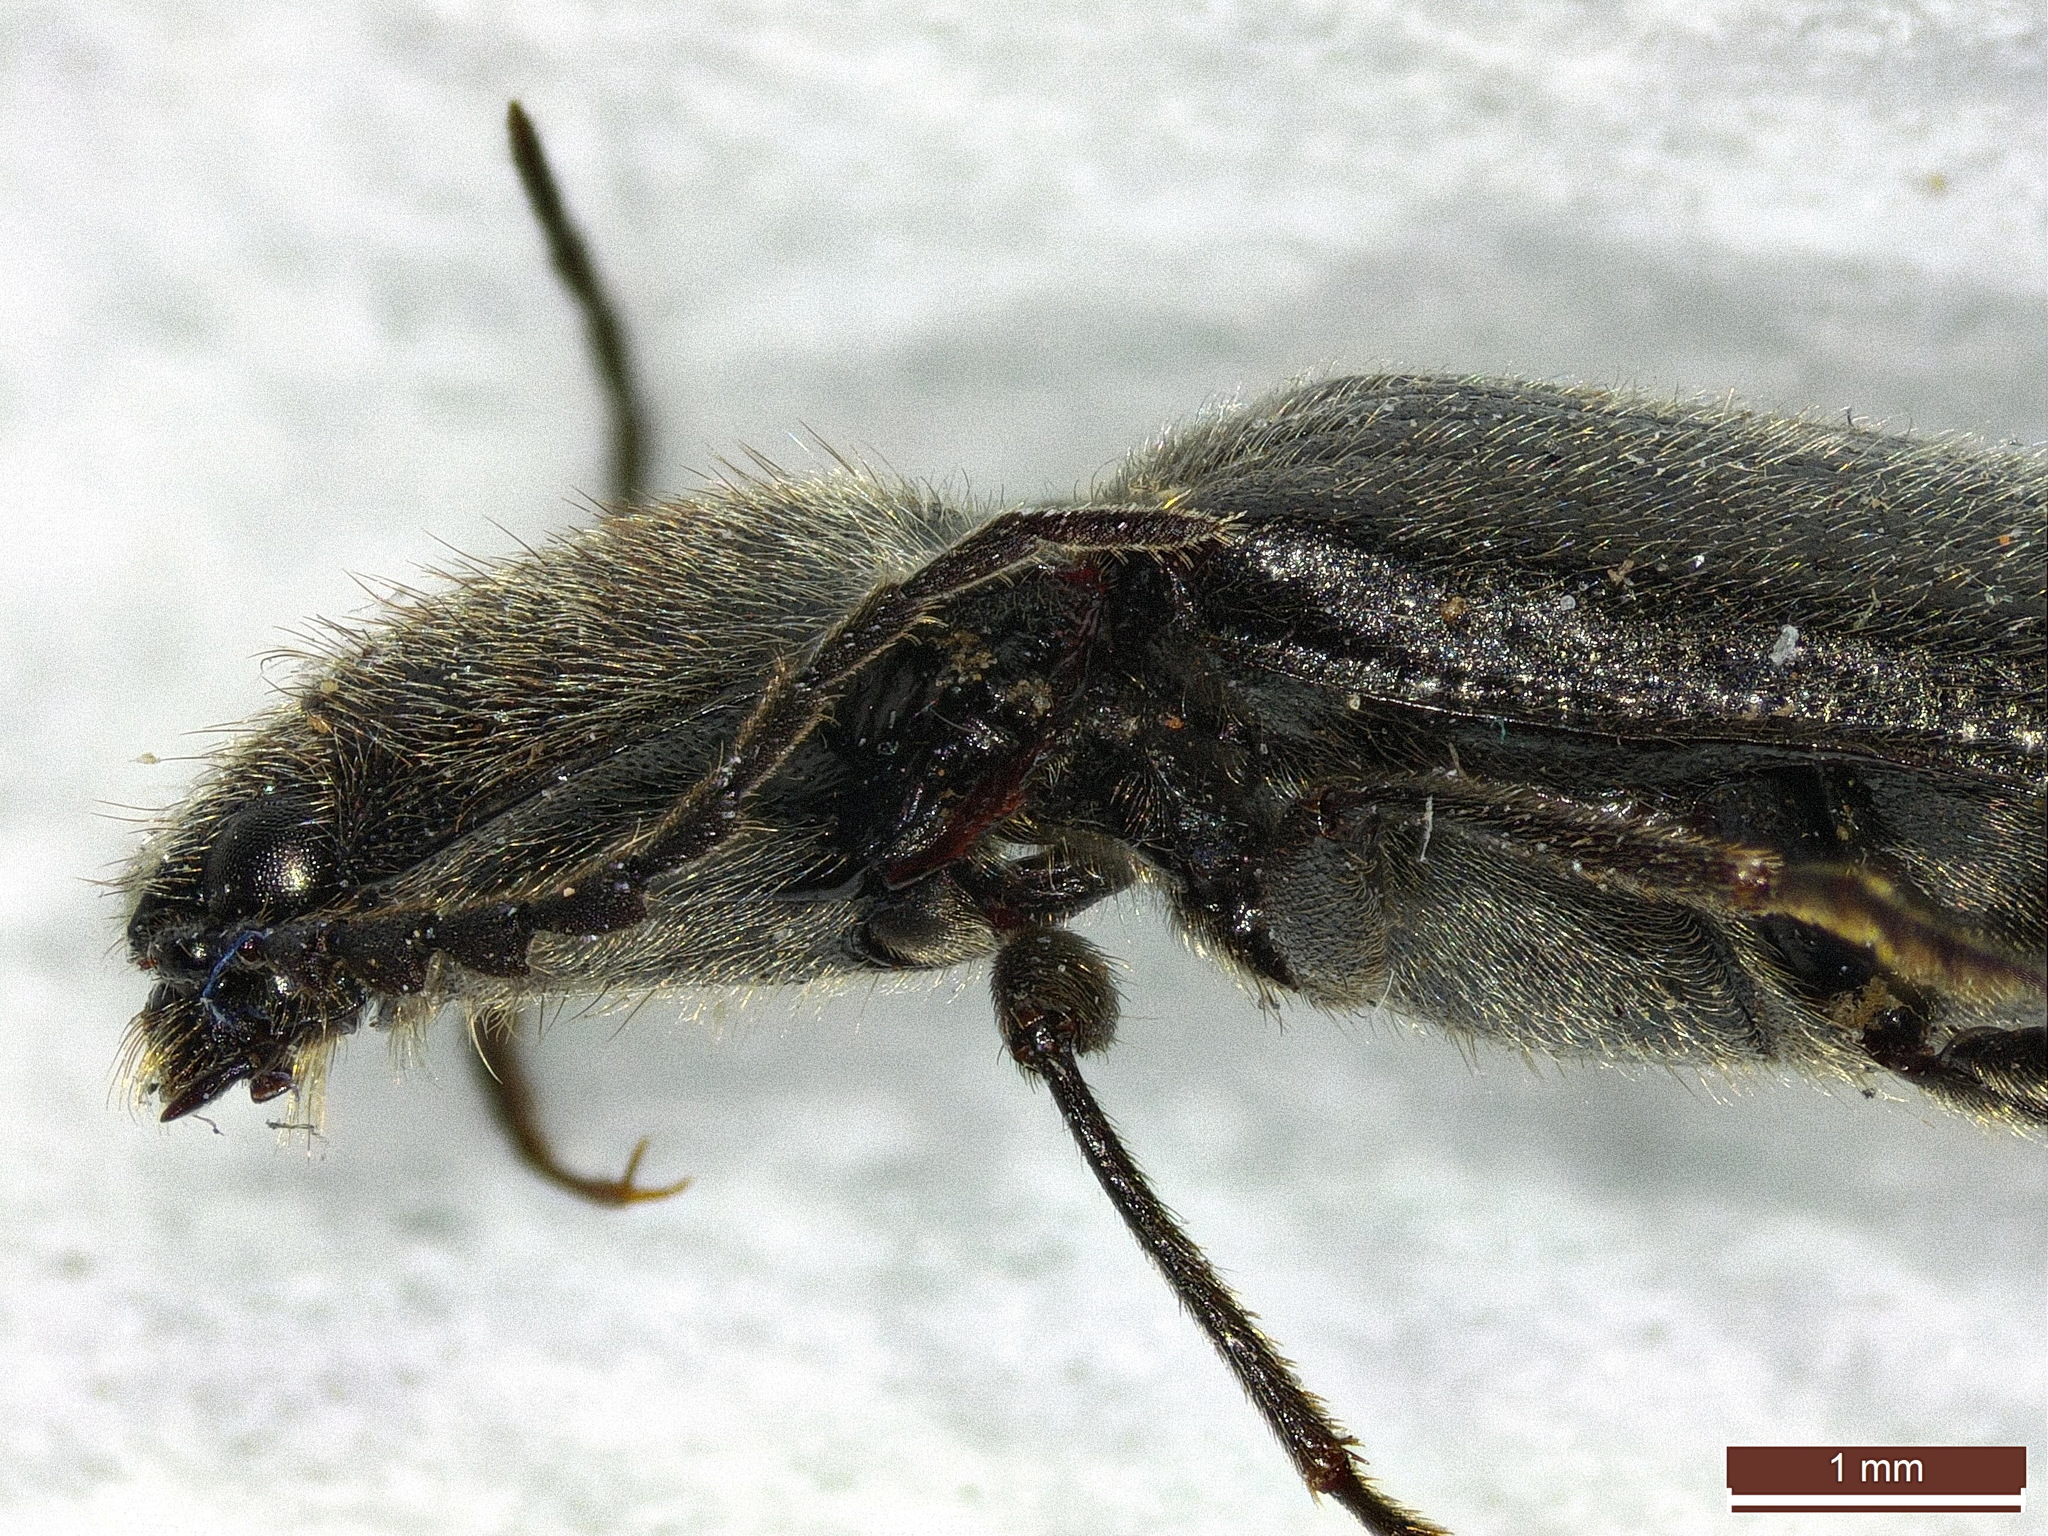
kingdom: Animalia
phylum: Arthropoda
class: Insecta
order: Coleoptera
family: Elateridae
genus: Hemicrepidius
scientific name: Hemicrepidius niger
